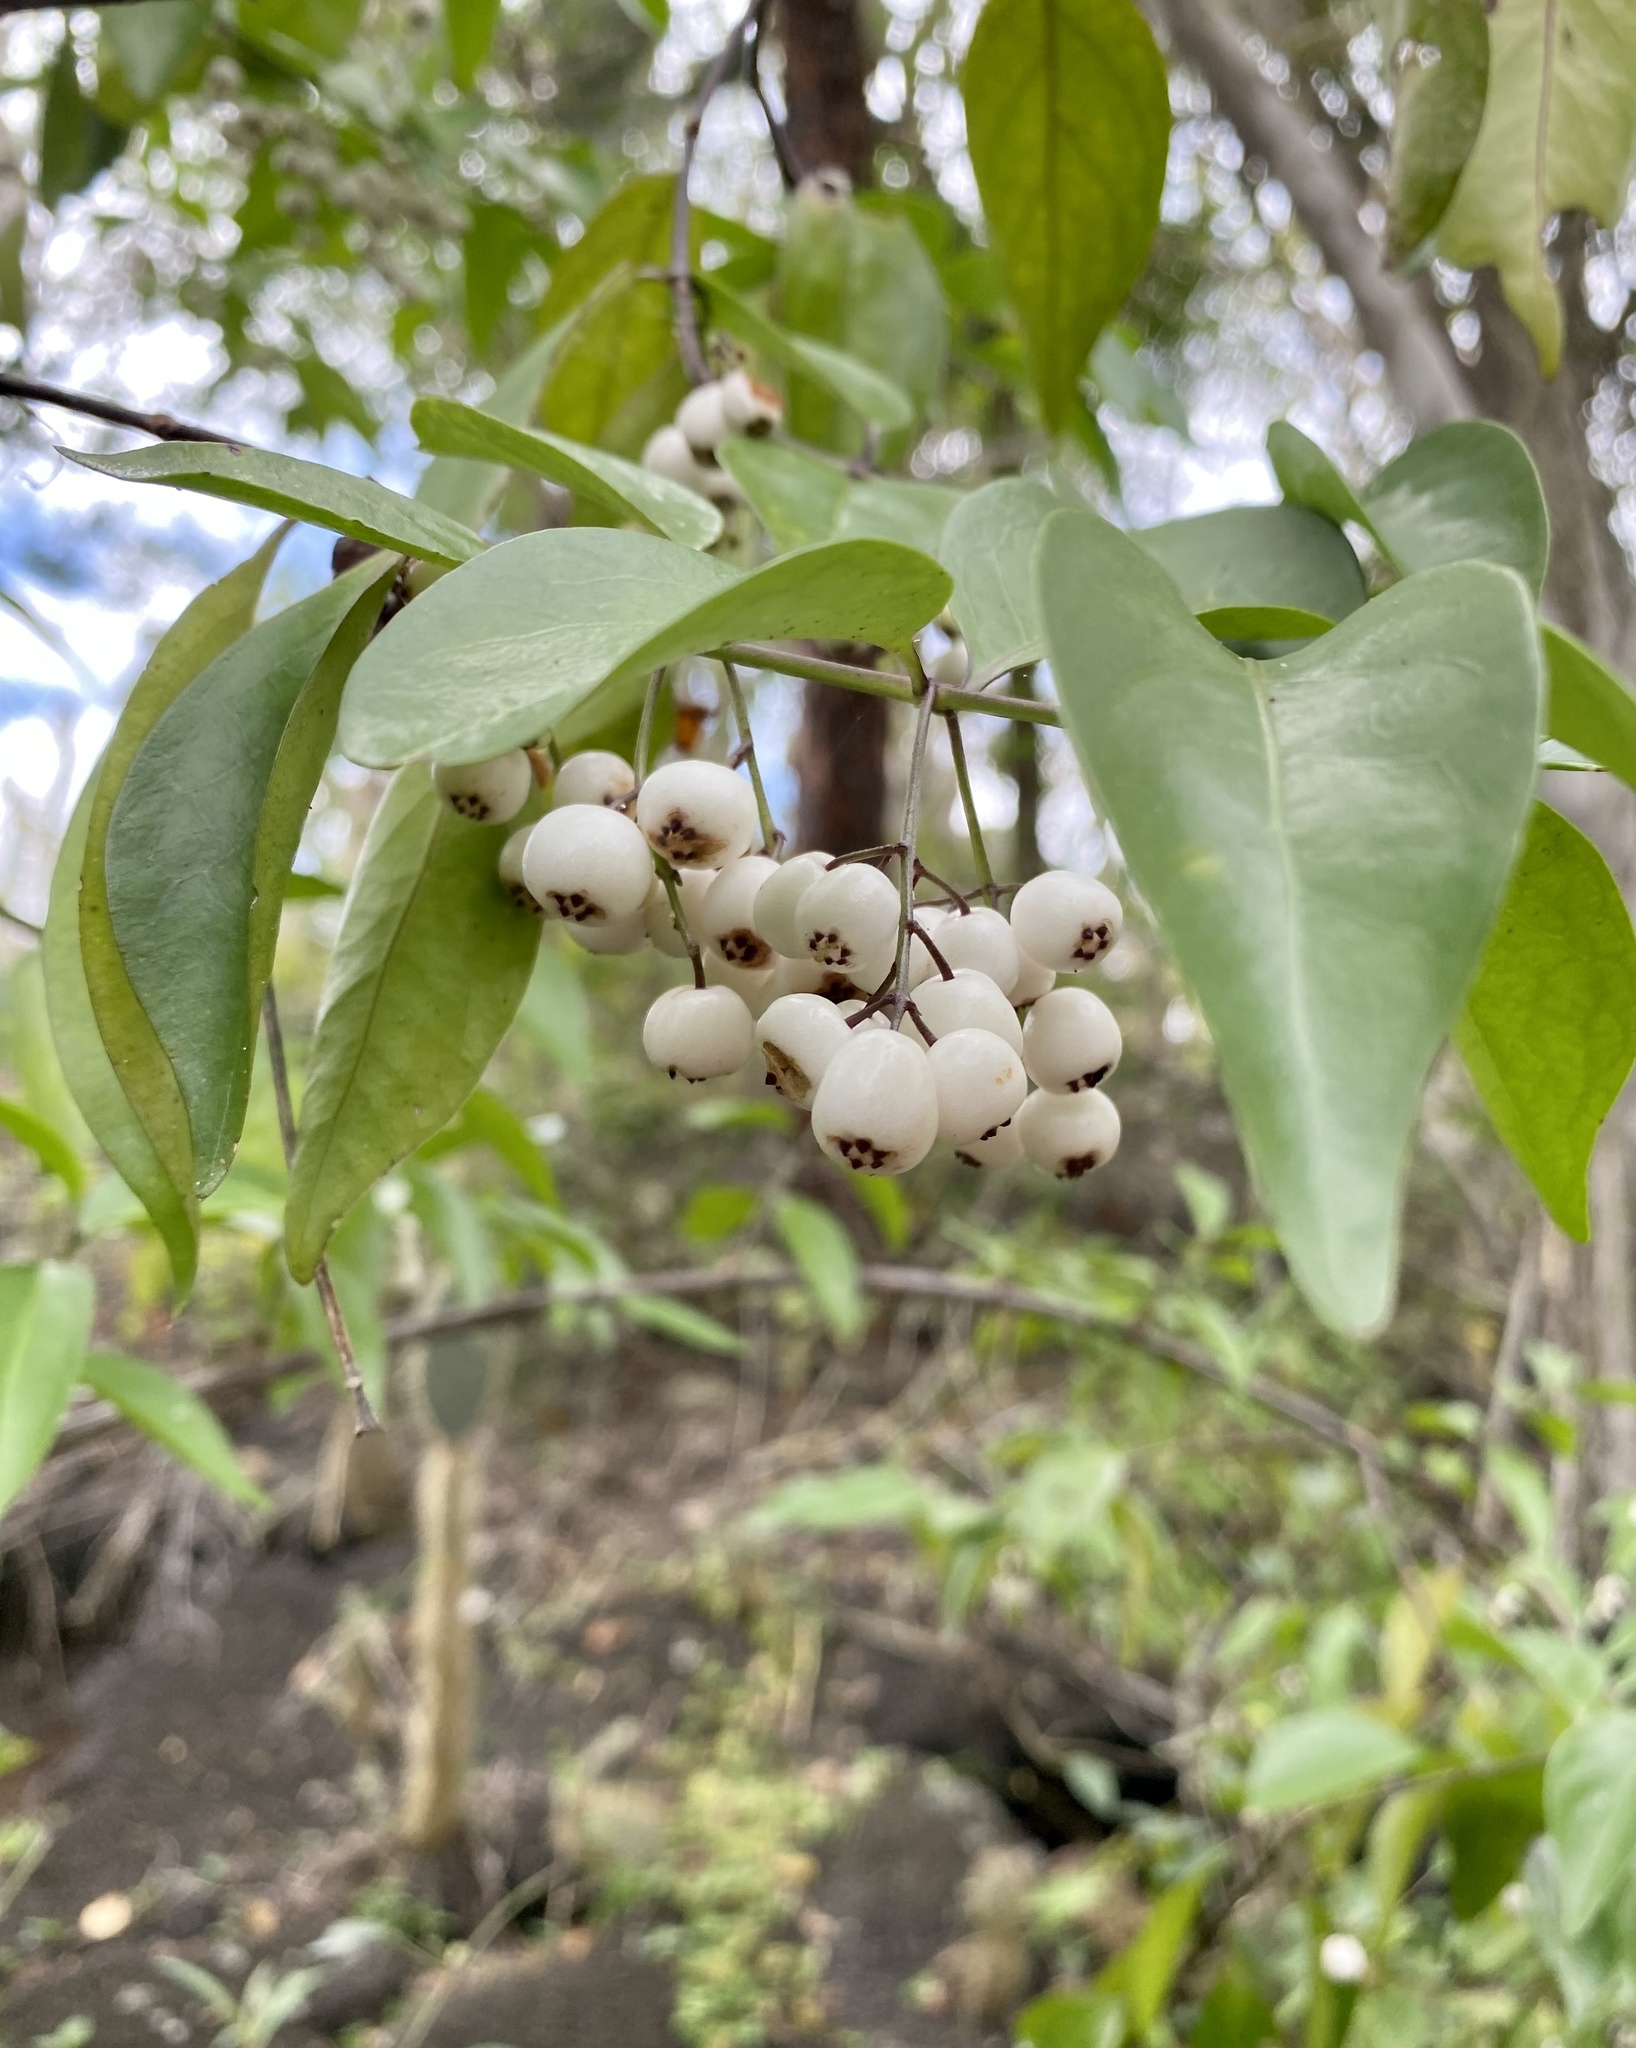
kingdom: Plantae
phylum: Tracheophyta
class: Magnoliopsida
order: Gentianales
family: Rubiaceae
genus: Chiococca
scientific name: Chiococca alba
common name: Snowberry
